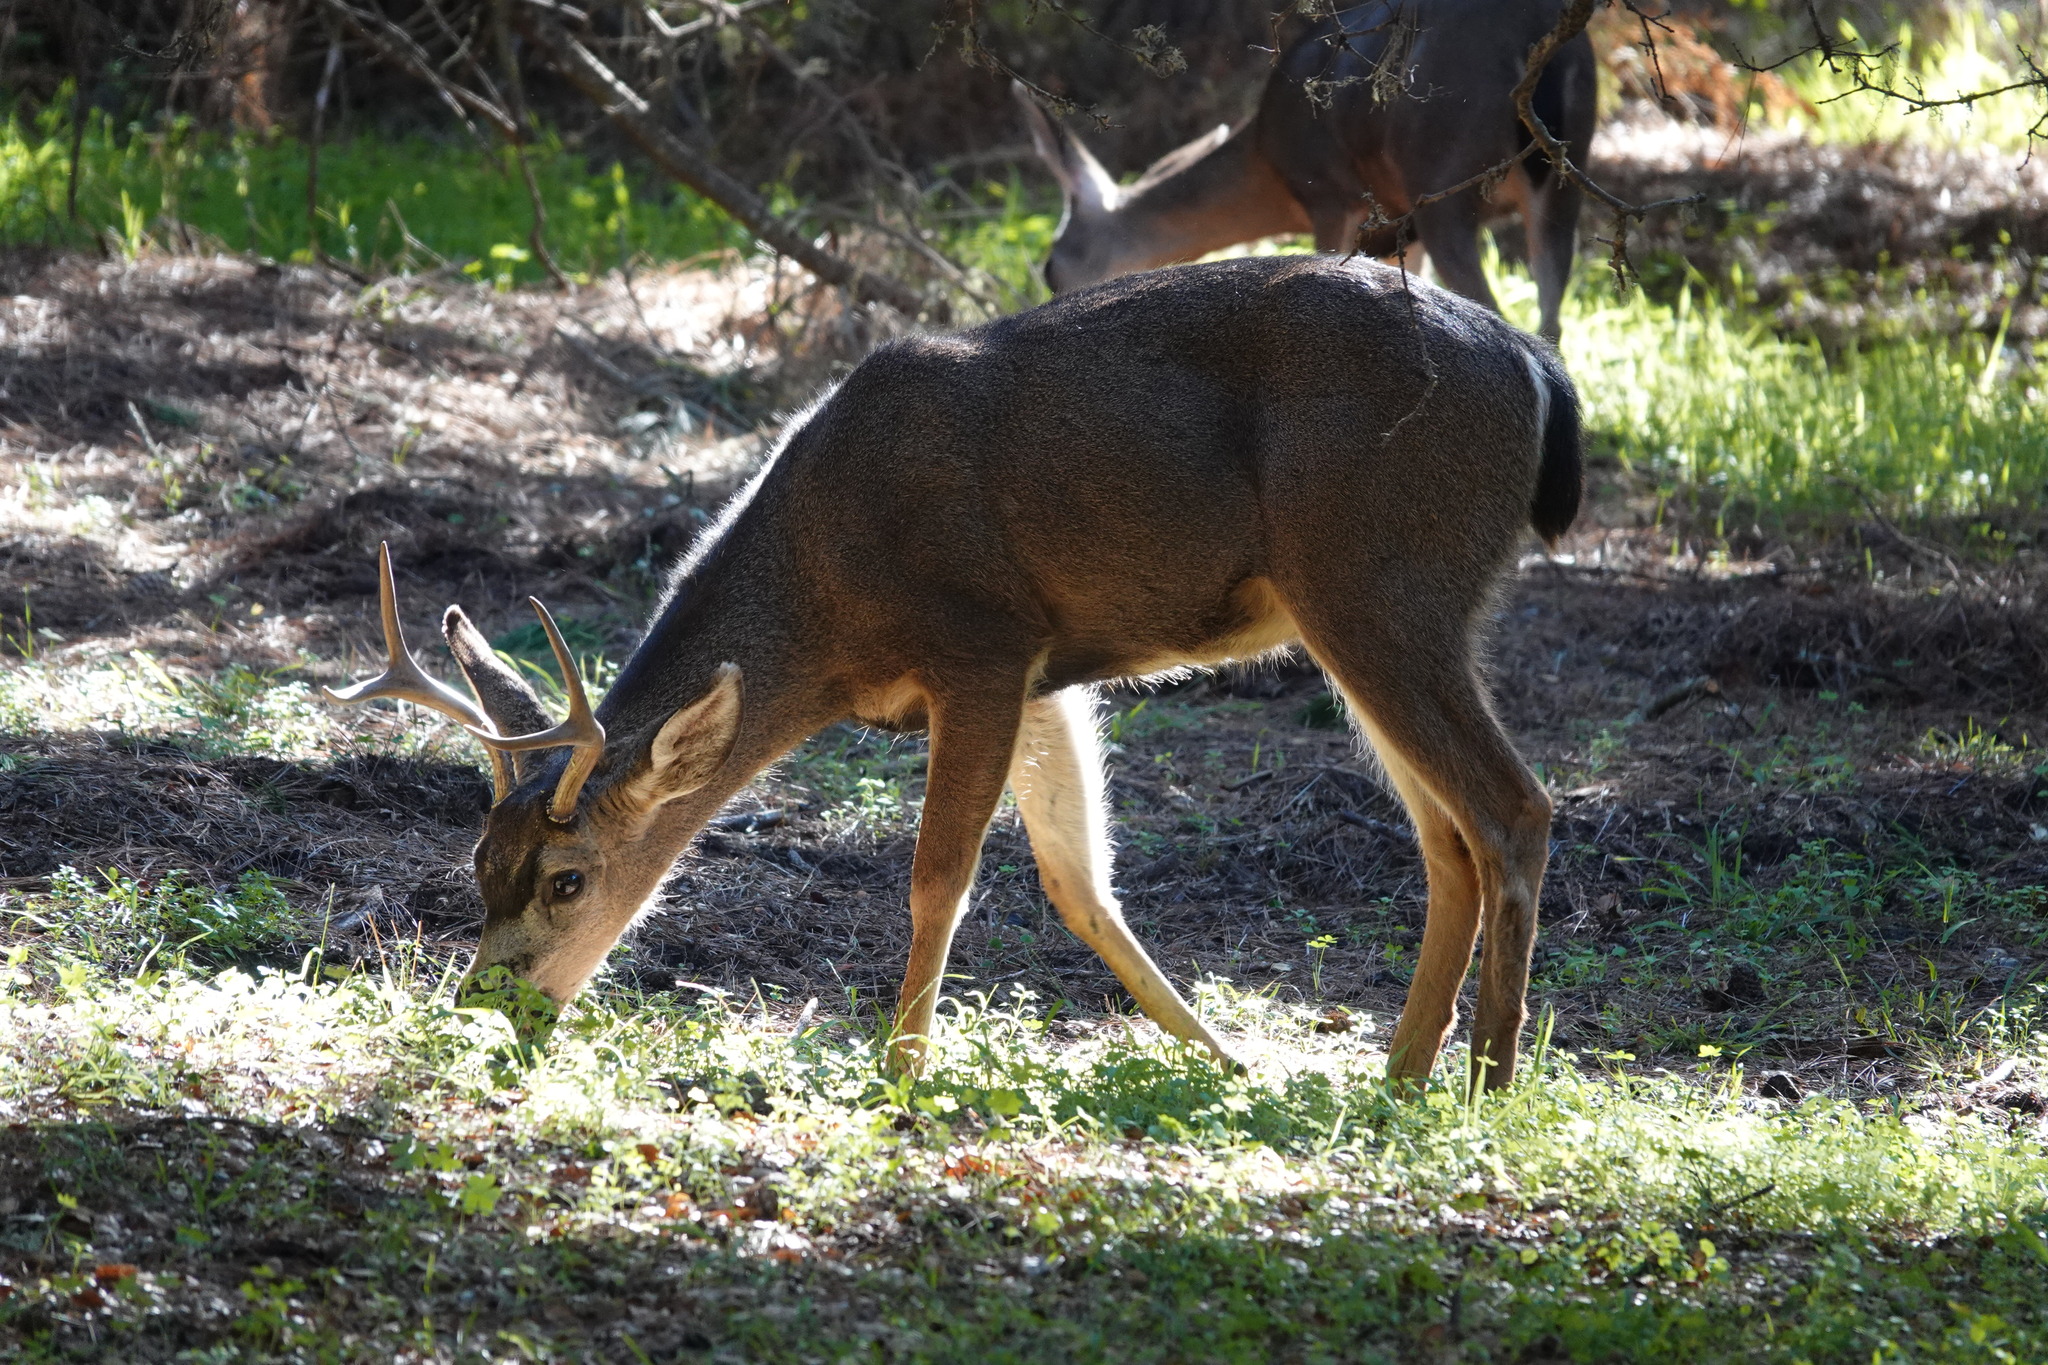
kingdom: Animalia
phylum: Chordata
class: Mammalia
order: Artiodactyla
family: Cervidae
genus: Odocoileus
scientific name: Odocoileus hemionus
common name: Mule deer
